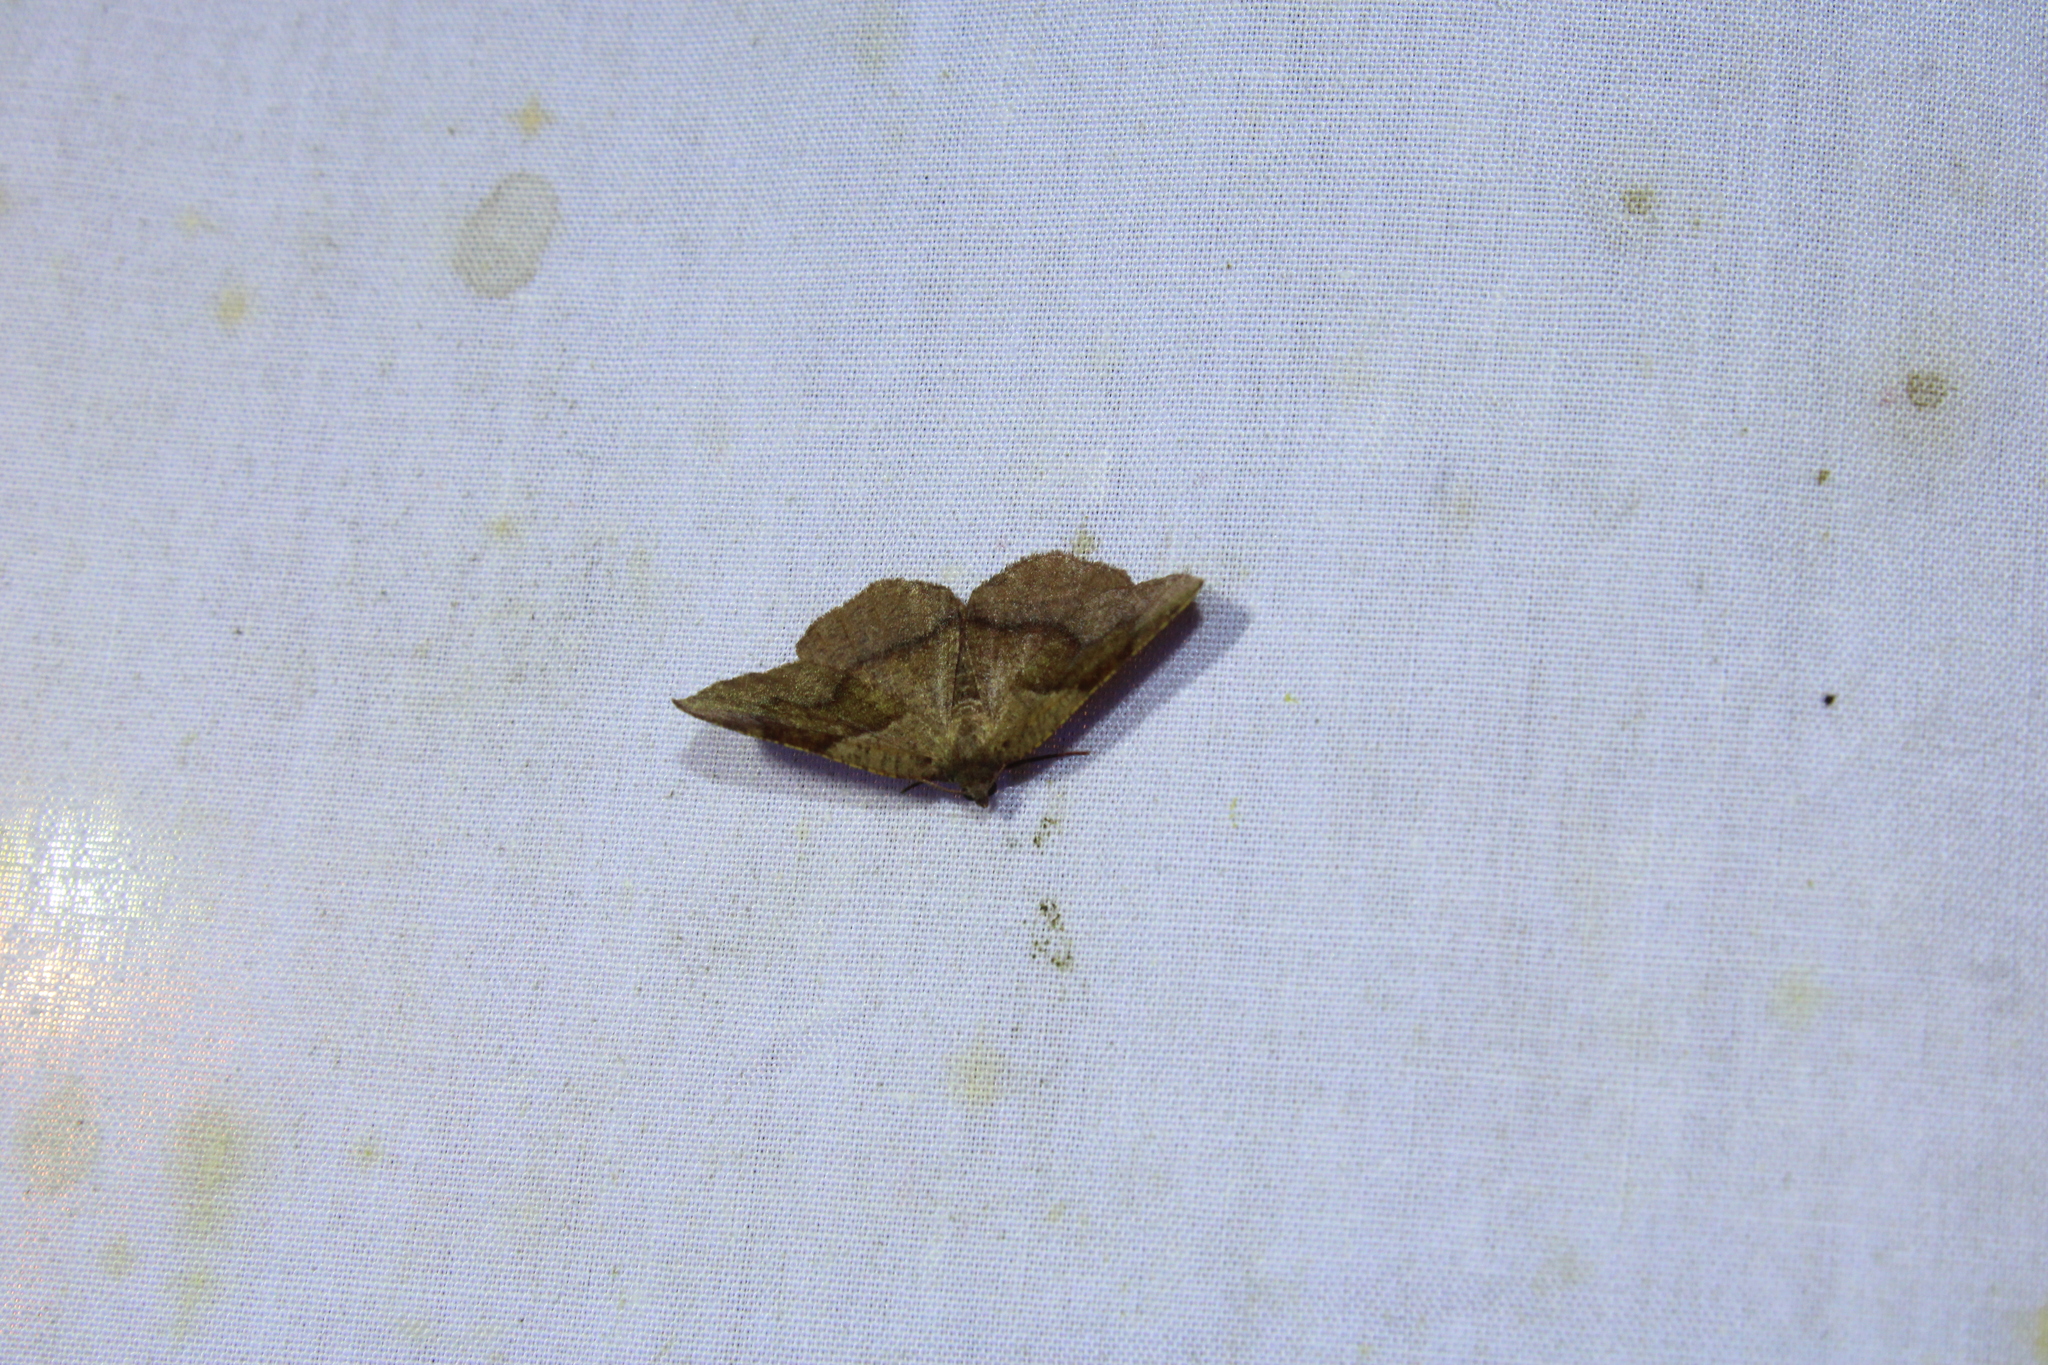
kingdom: Animalia
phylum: Arthropoda
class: Insecta
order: Lepidoptera
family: Geometridae
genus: Plagodis
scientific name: Plagodis pulveraria
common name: Barred umber
